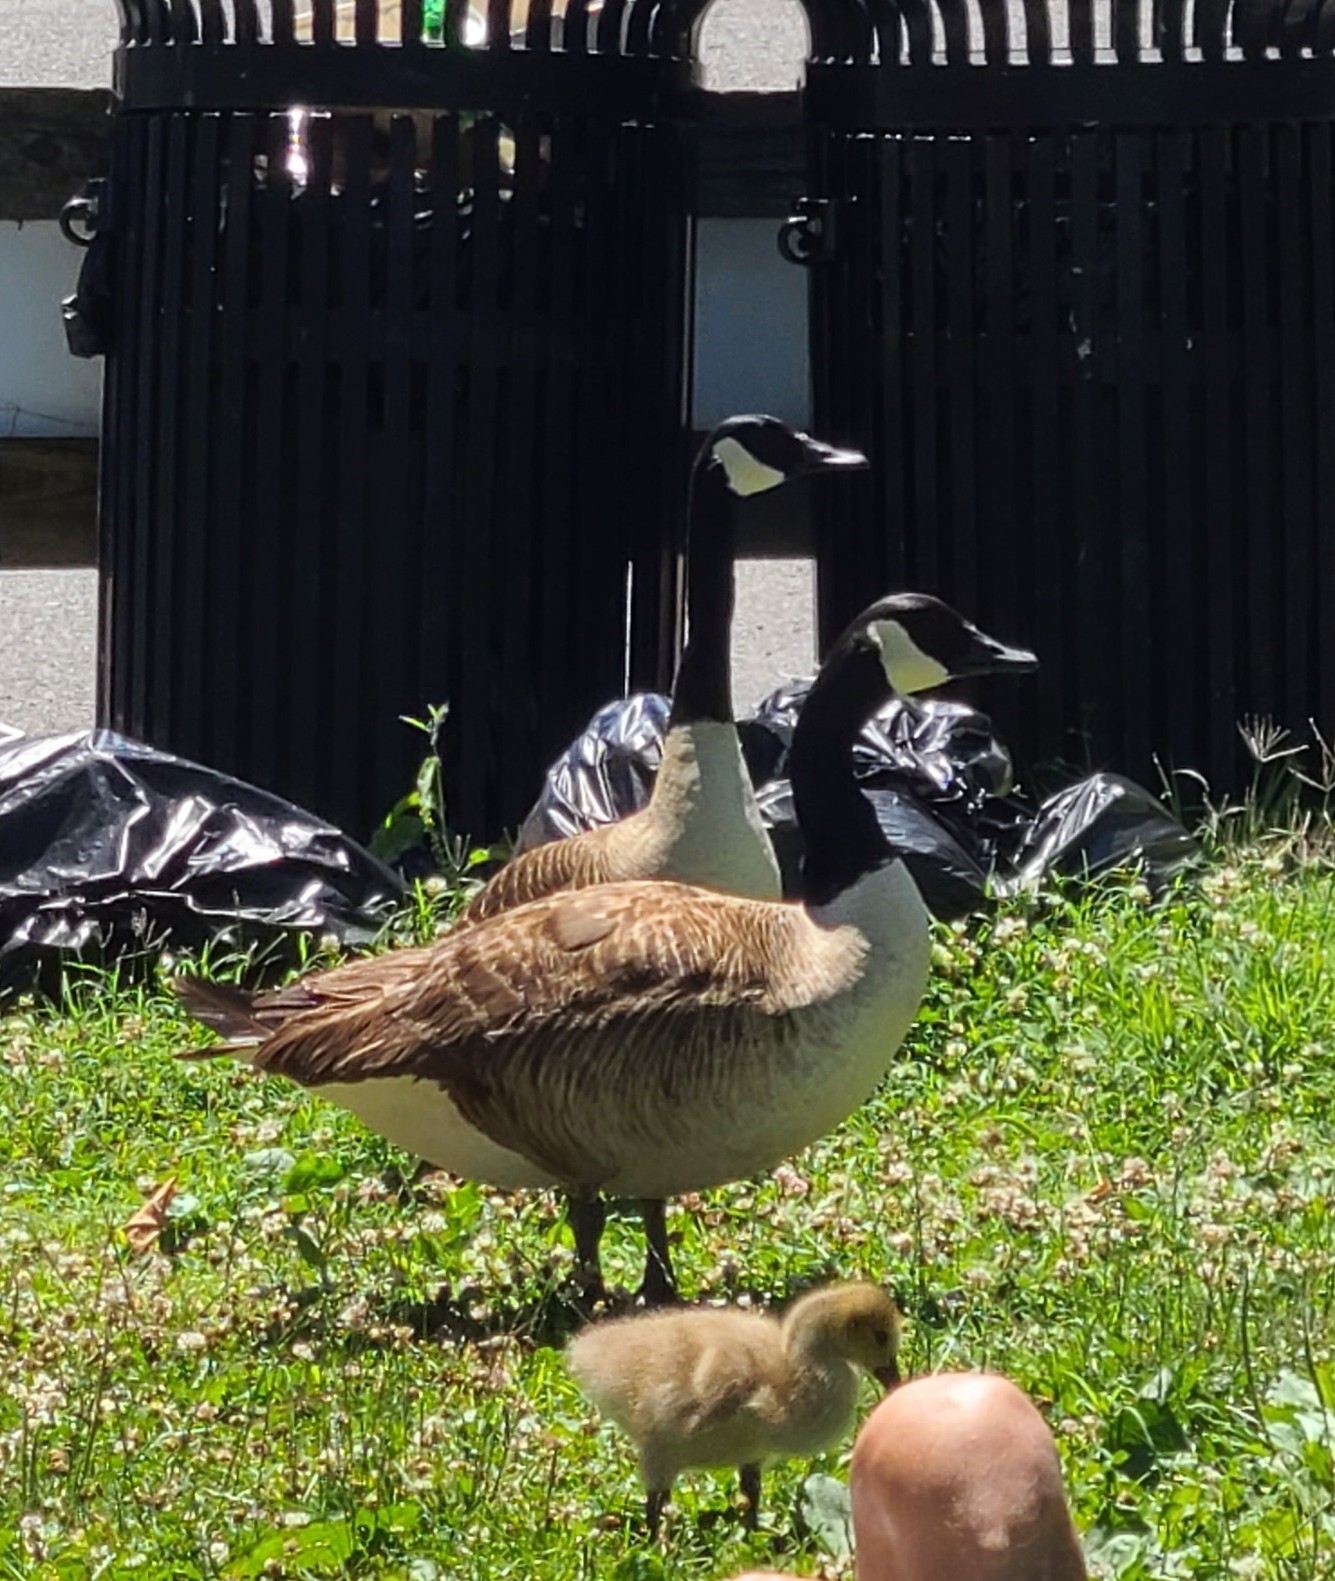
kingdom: Animalia
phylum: Chordata
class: Aves
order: Anseriformes
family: Anatidae
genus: Branta
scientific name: Branta canadensis
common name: Canada goose
